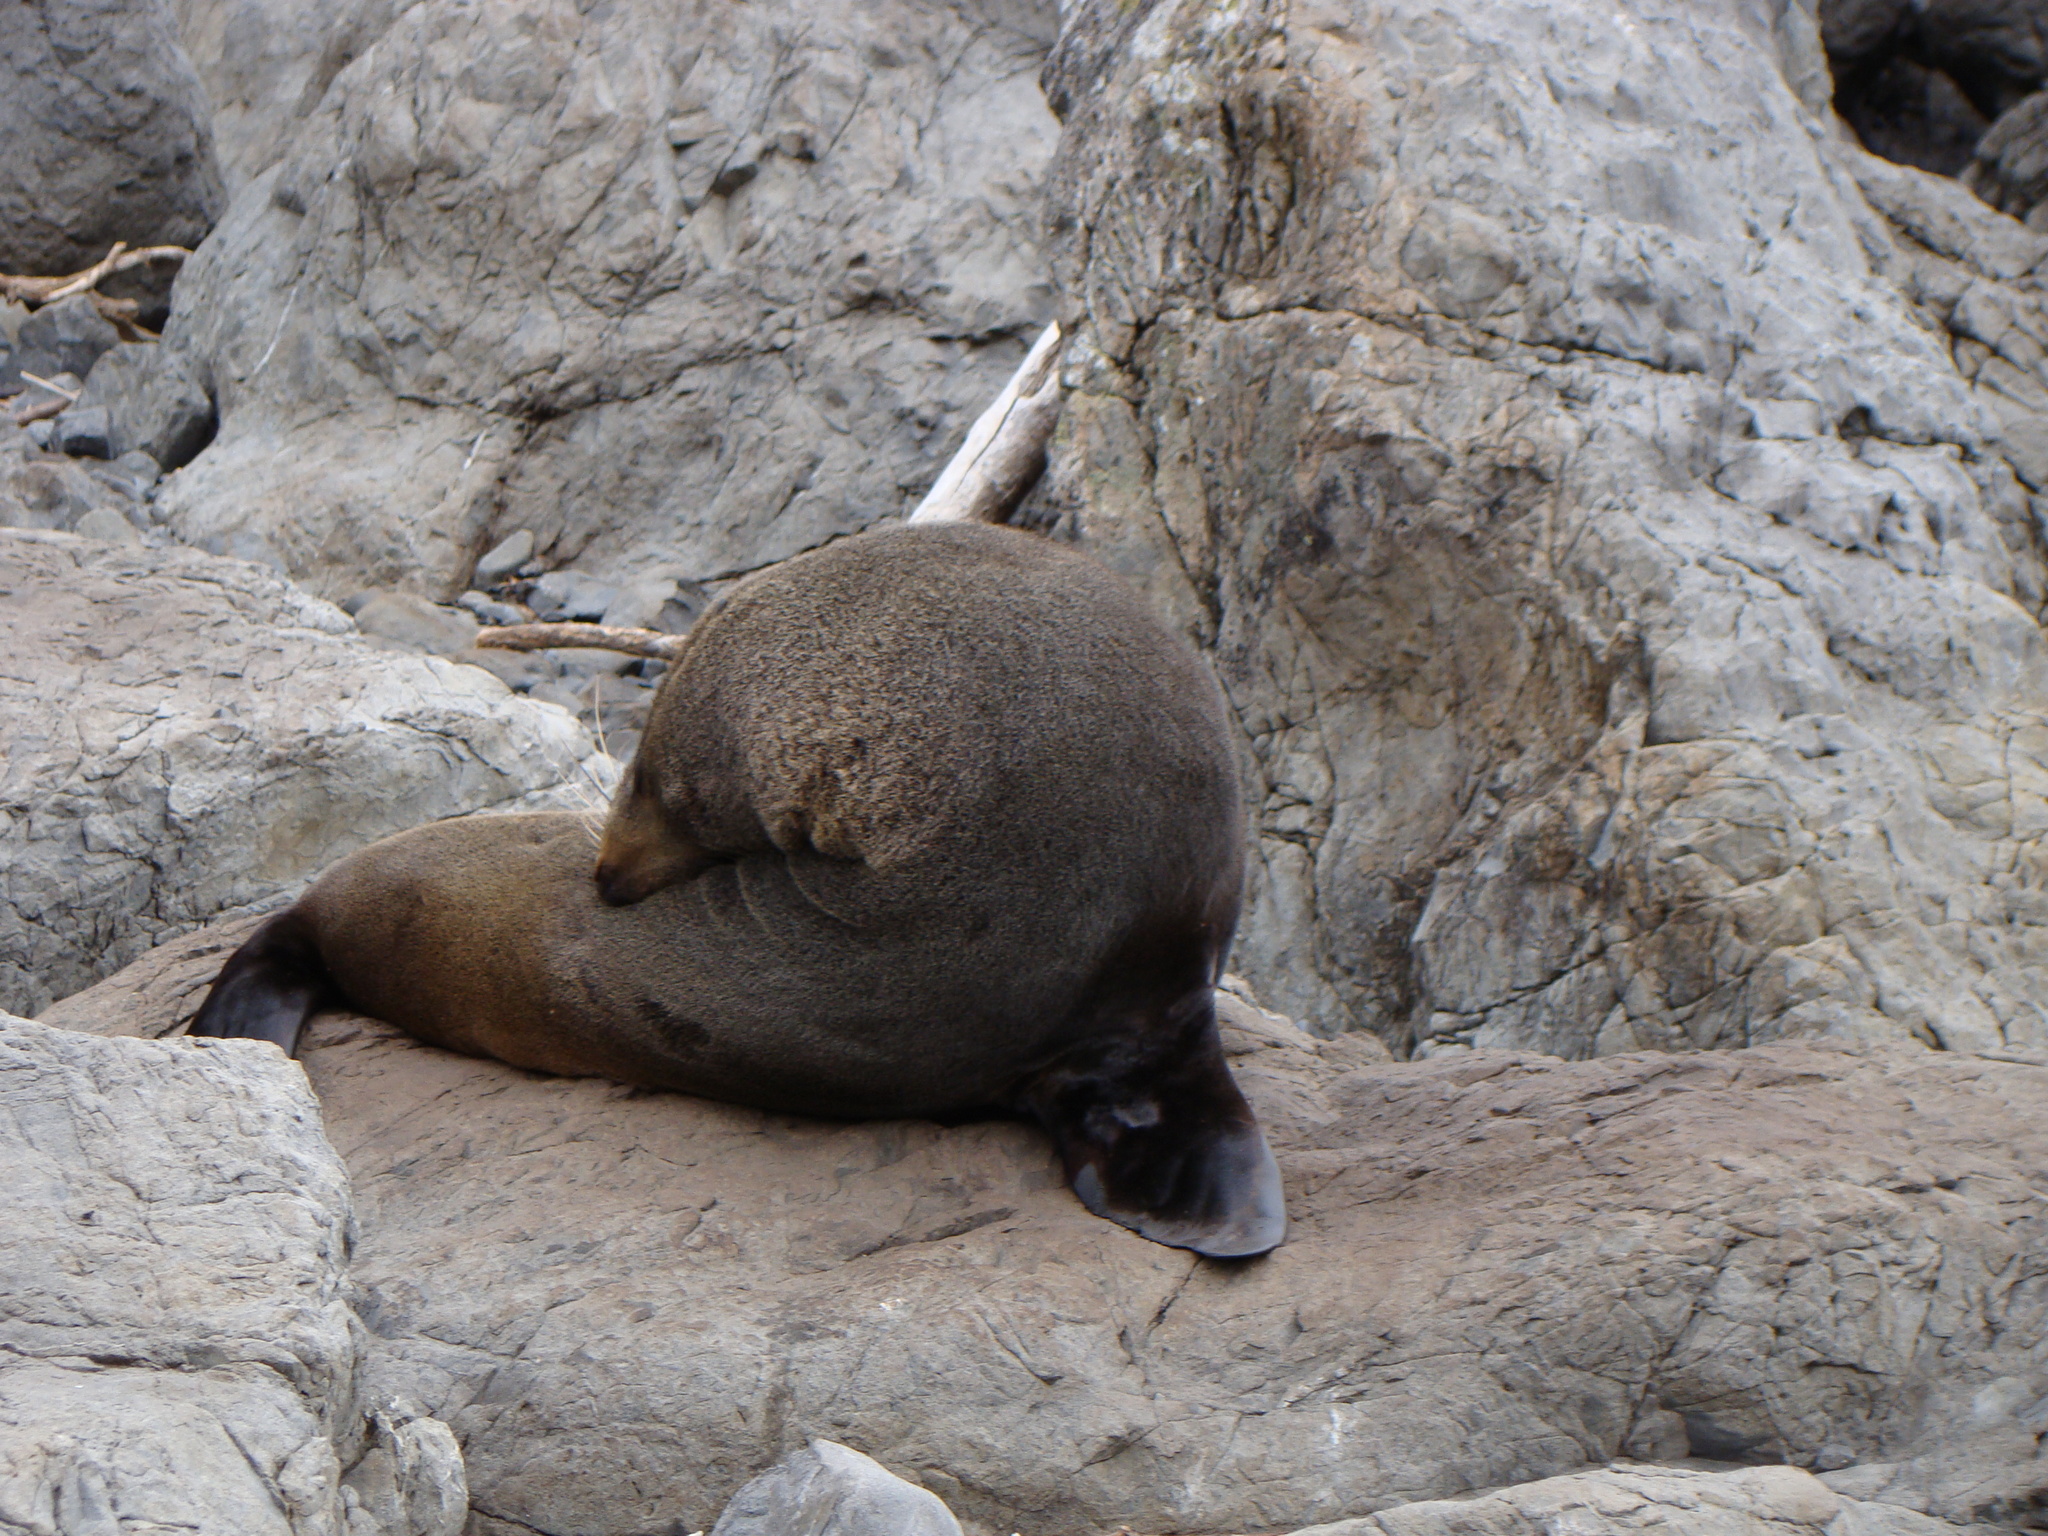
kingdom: Animalia
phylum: Chordata
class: Mammalia
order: Carnivora
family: Otariidae
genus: Arctocephalus
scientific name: Arctocephalus forsteri
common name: New zealand fur seal
